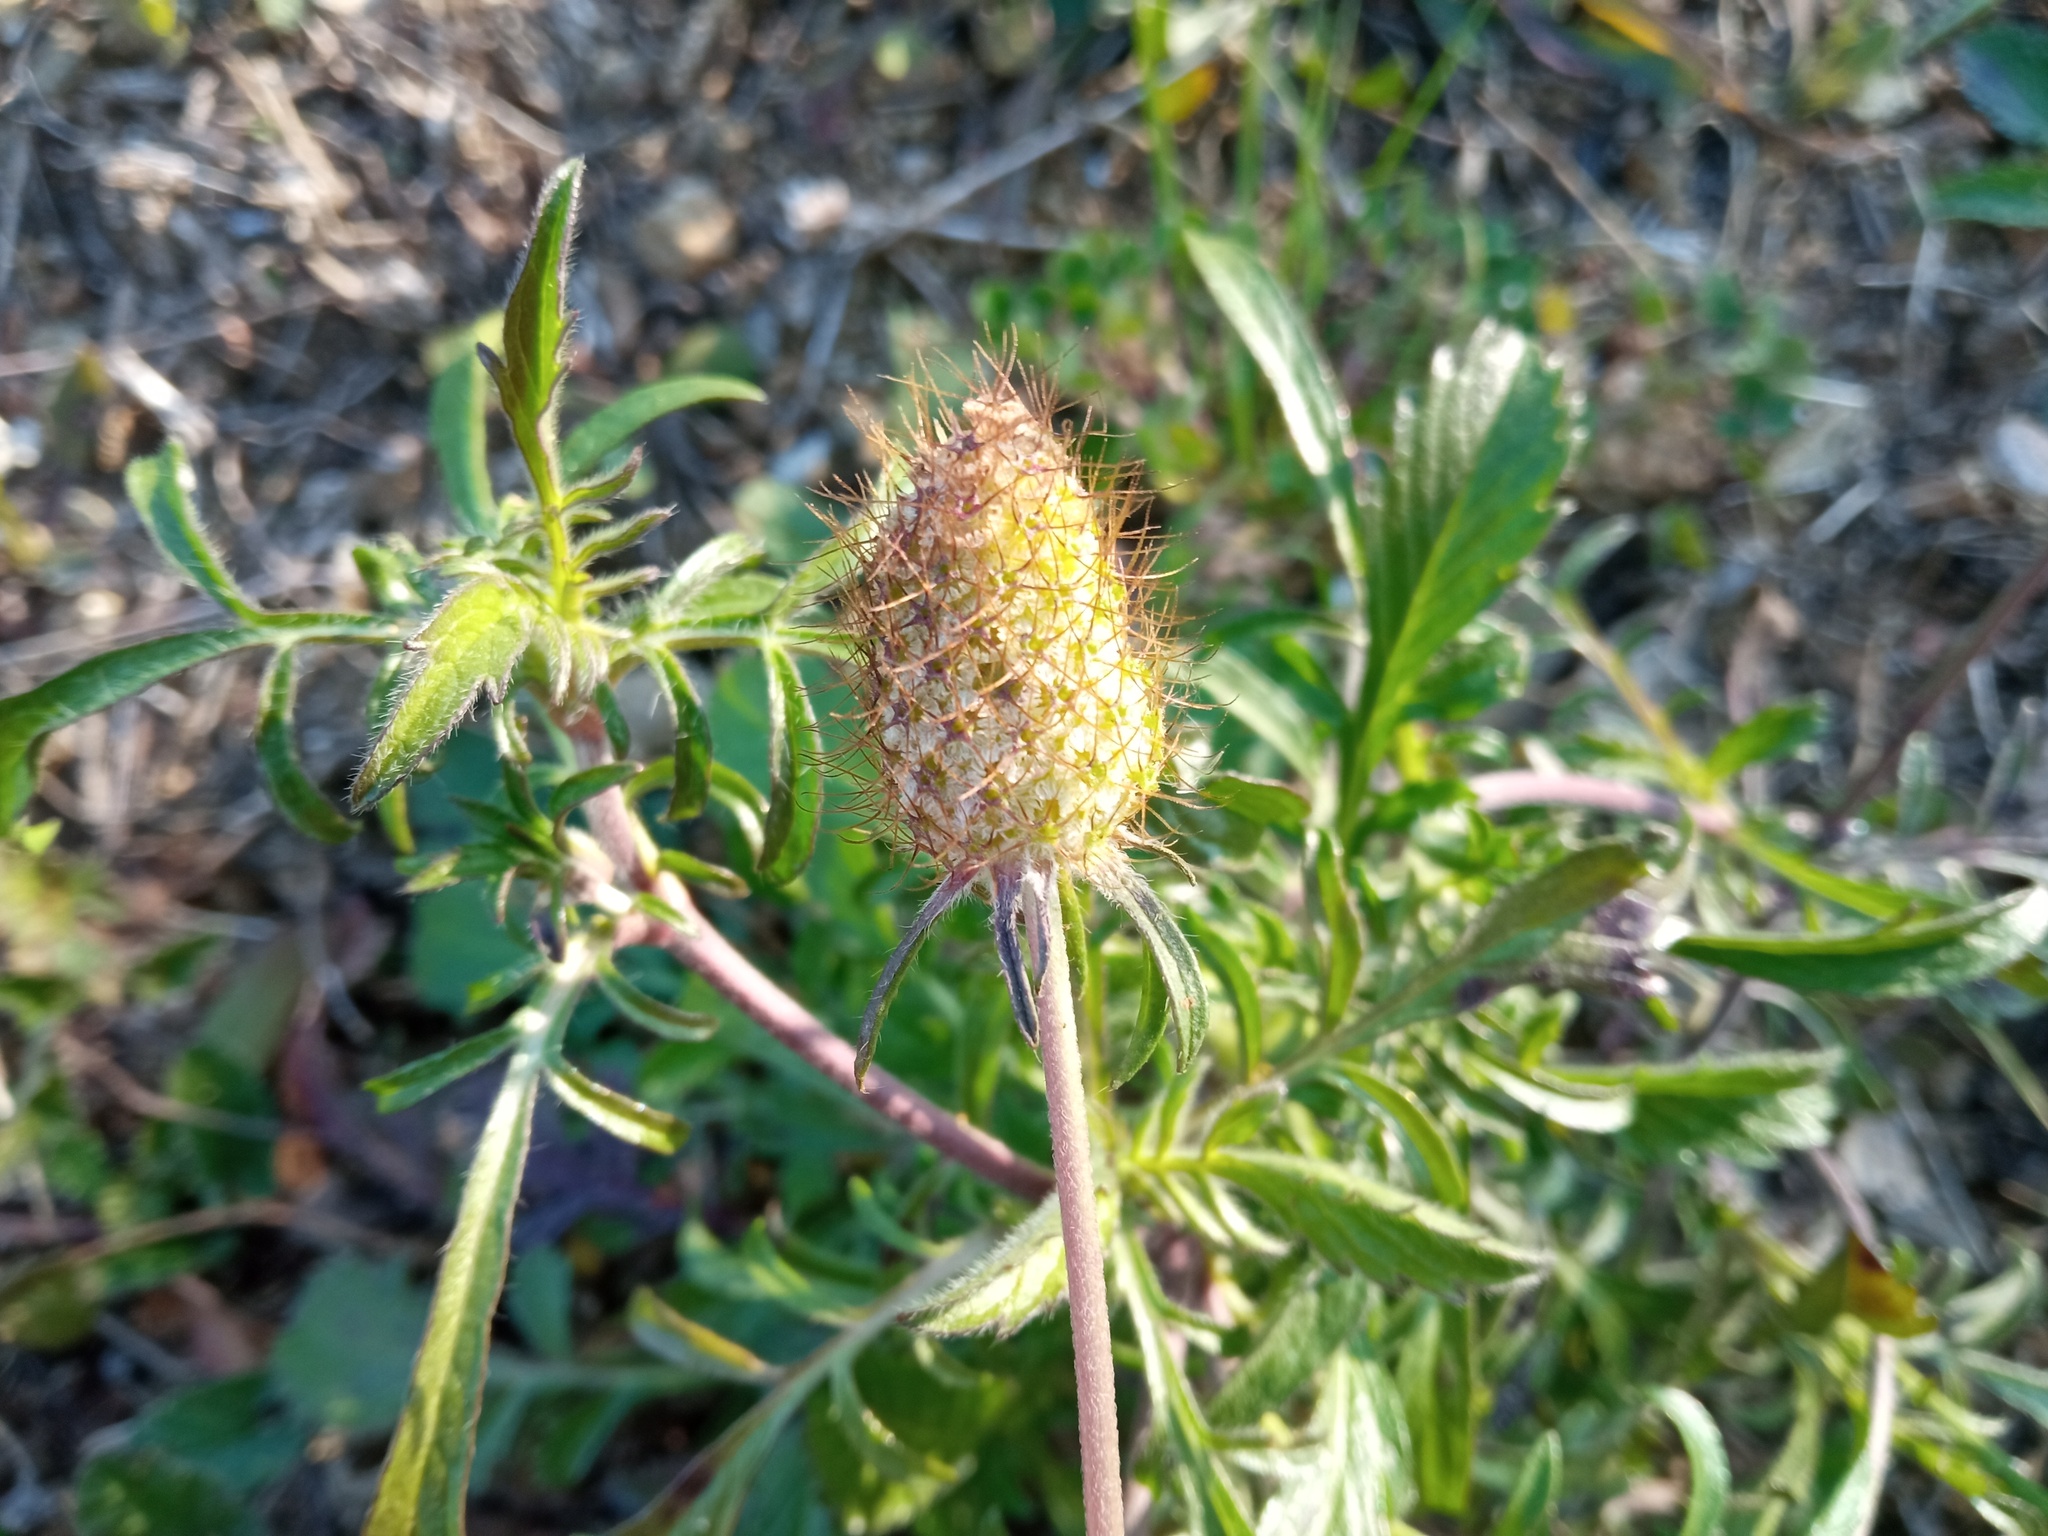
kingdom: Plantae
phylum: Tracheophyta
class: Magnoliopsida
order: Dipsacales
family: Caprifoliaceae
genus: Sixalix
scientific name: Sixalix atropurpurea
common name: Sweet scabious
